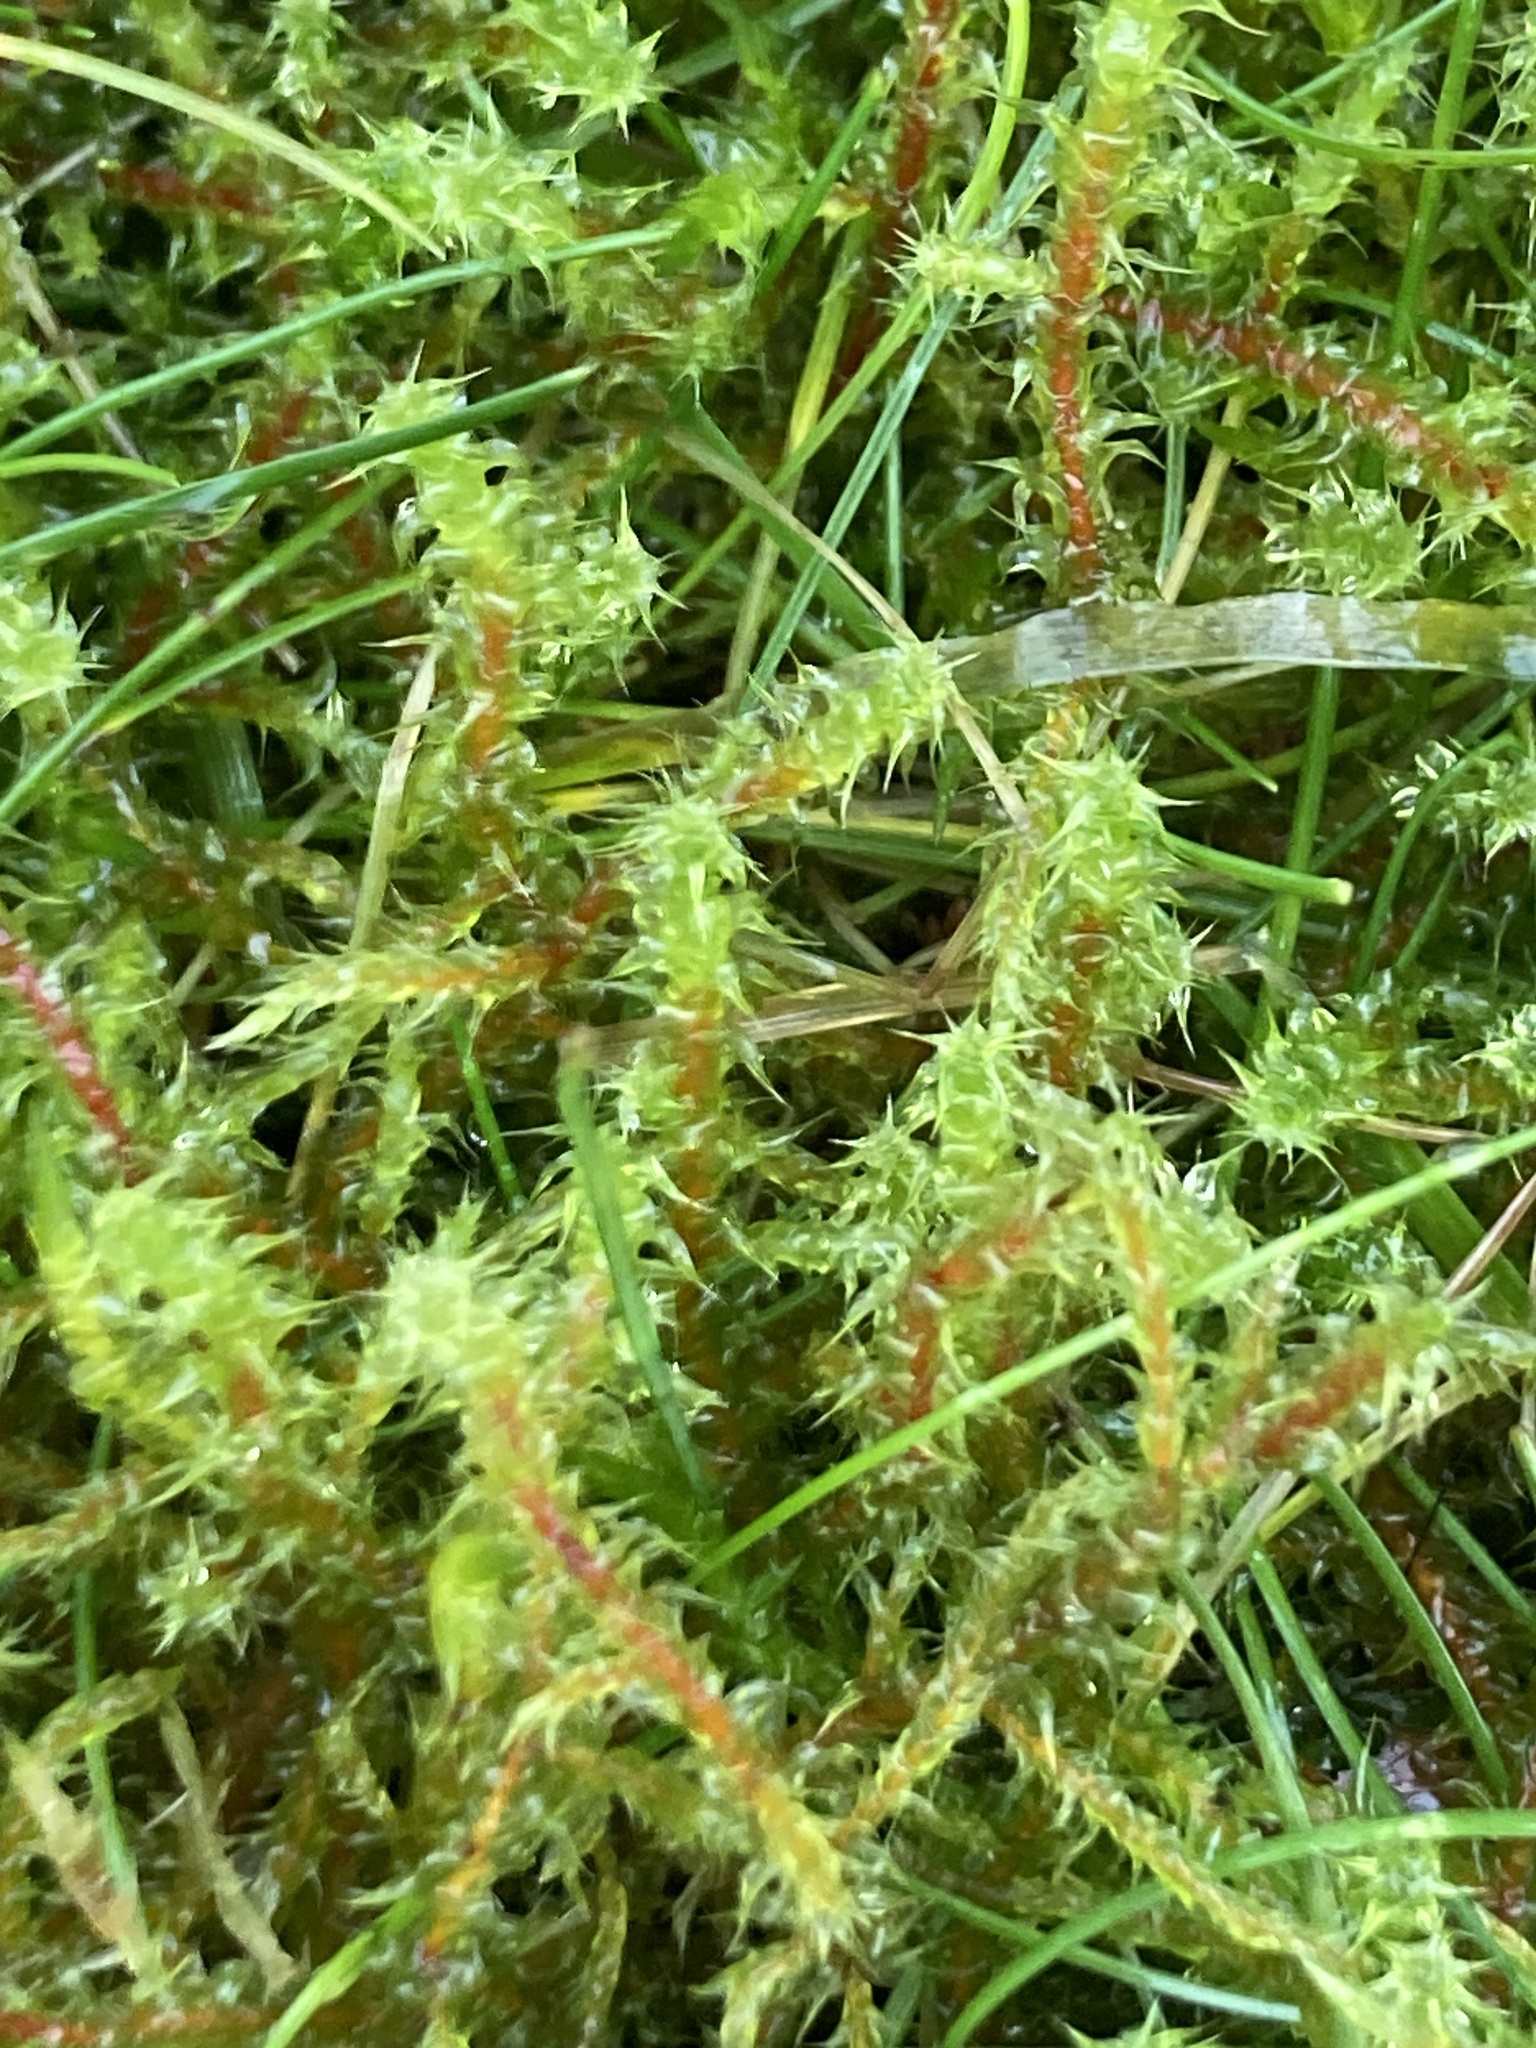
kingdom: Plantae
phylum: Bryophyta
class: Bryopsida
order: Hypnales
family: Hylocomiaceae
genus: Rhytidiadelphus
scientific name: Rhytidiadelphus squarrosus
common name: Springy turf-moss
